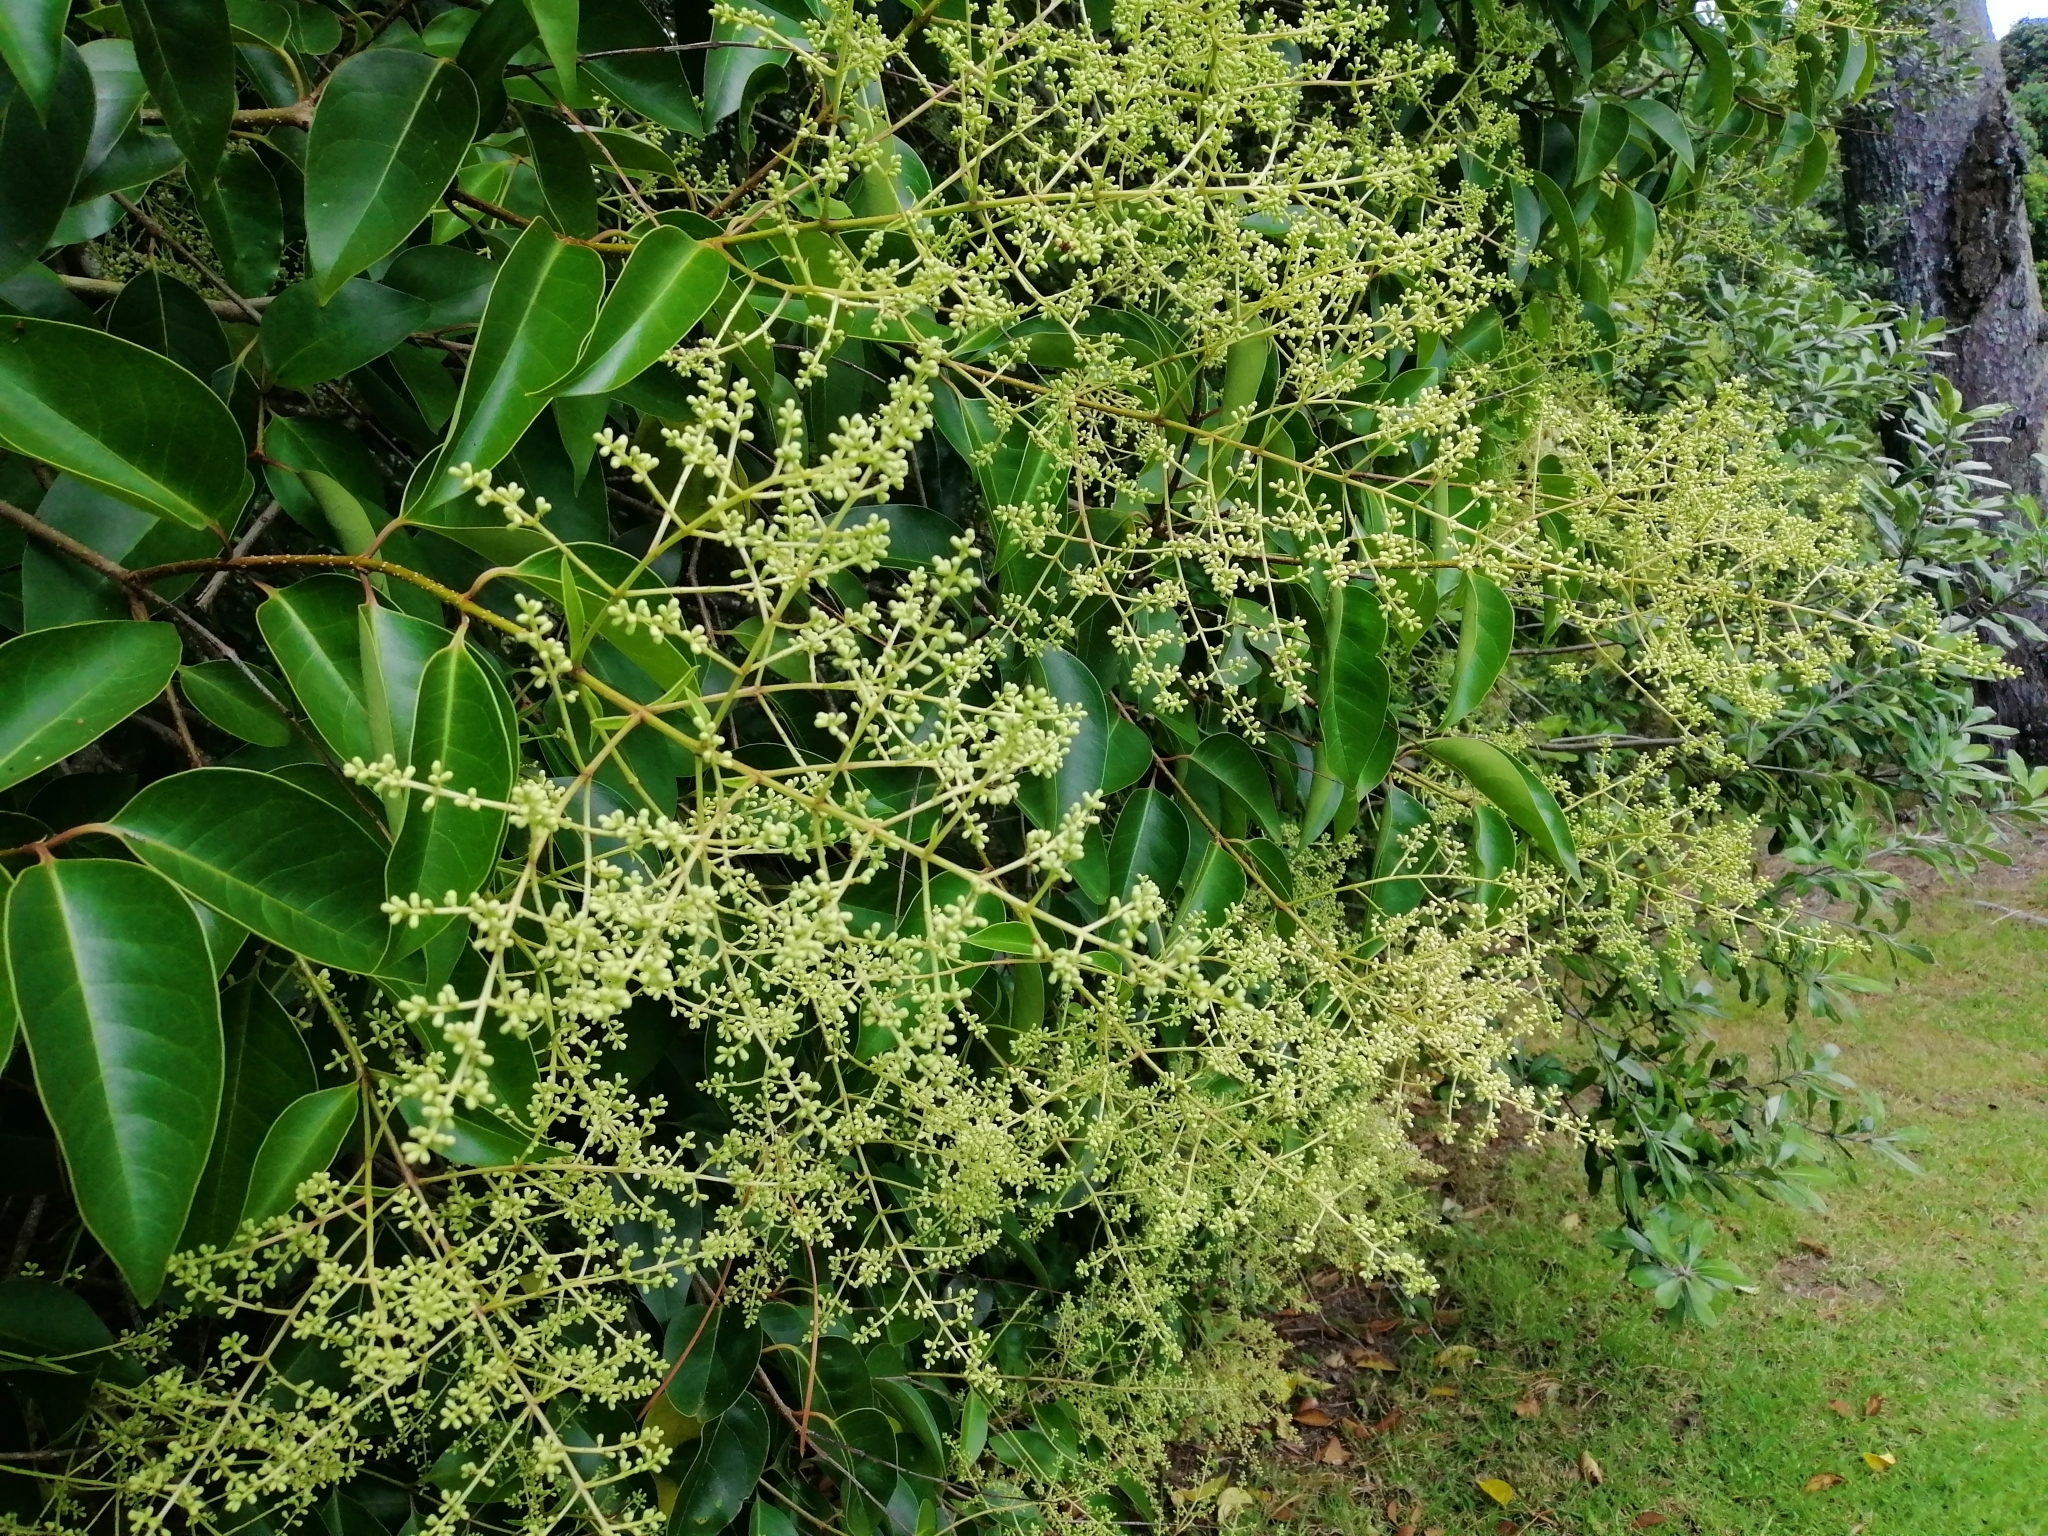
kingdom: Plantae
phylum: Tracheophyta
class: Magnoliopsida
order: Lamiales
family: Oleaceae
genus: Ligustrum
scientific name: Ligustrum lucidum
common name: Glossy privet
